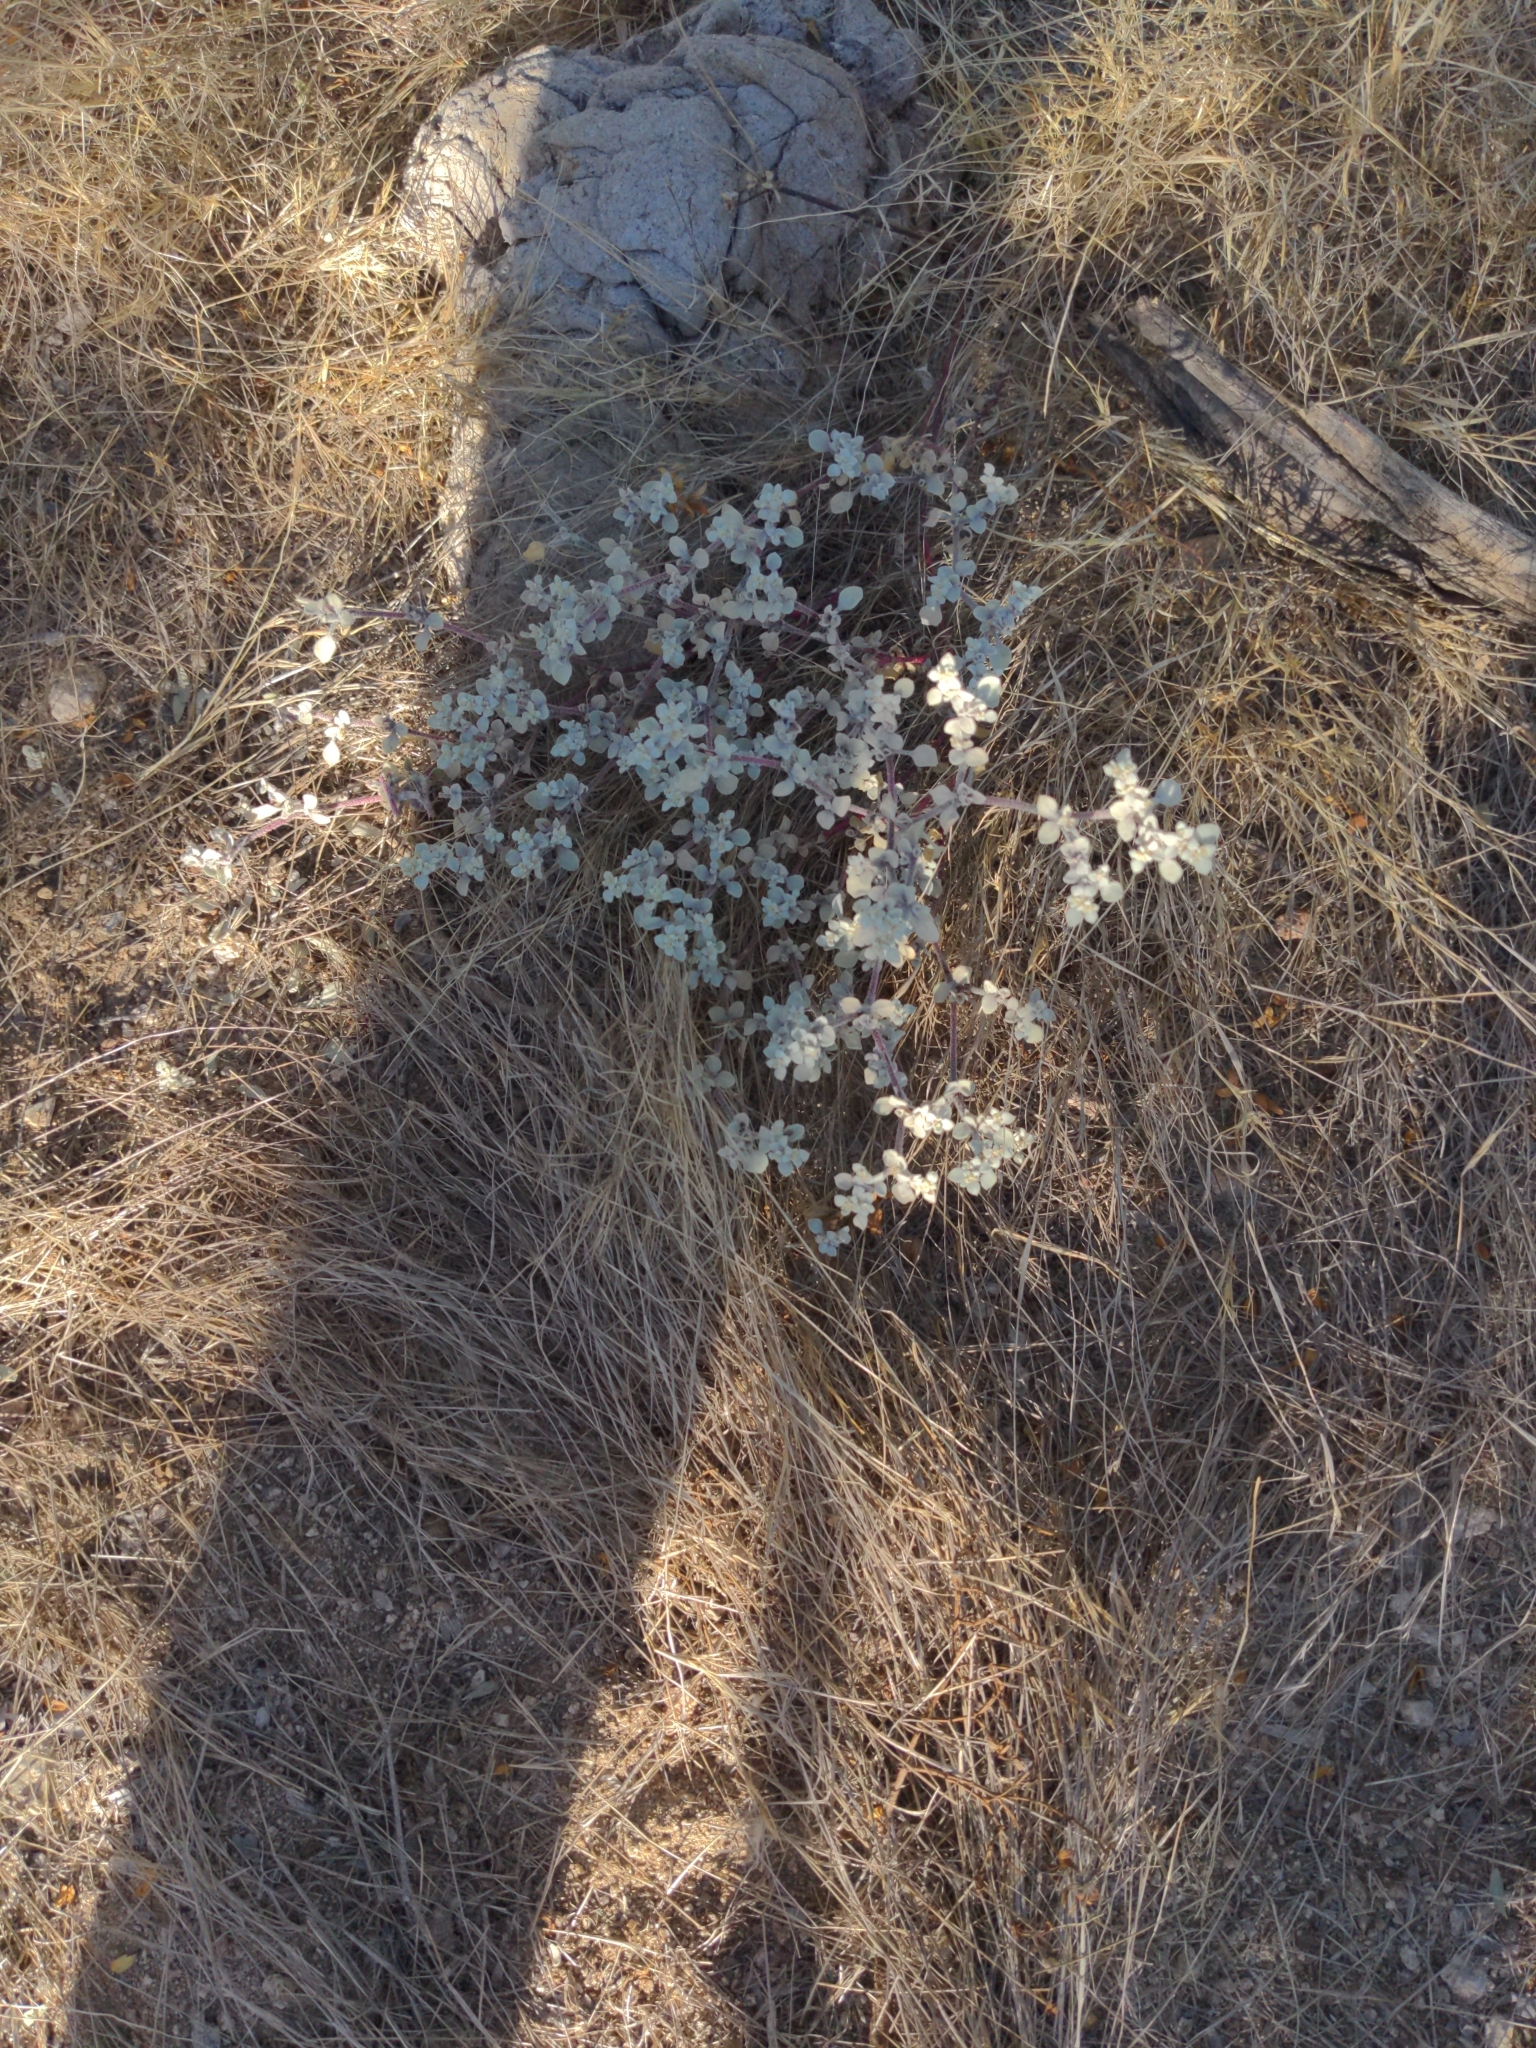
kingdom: Plantae
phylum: Tracheophyta
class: Magnoliopsida
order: Caryophyllales
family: Amaranthaceae
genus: Tidestromia
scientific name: Tidestromia lanuginosa
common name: Woolly tidestromia
